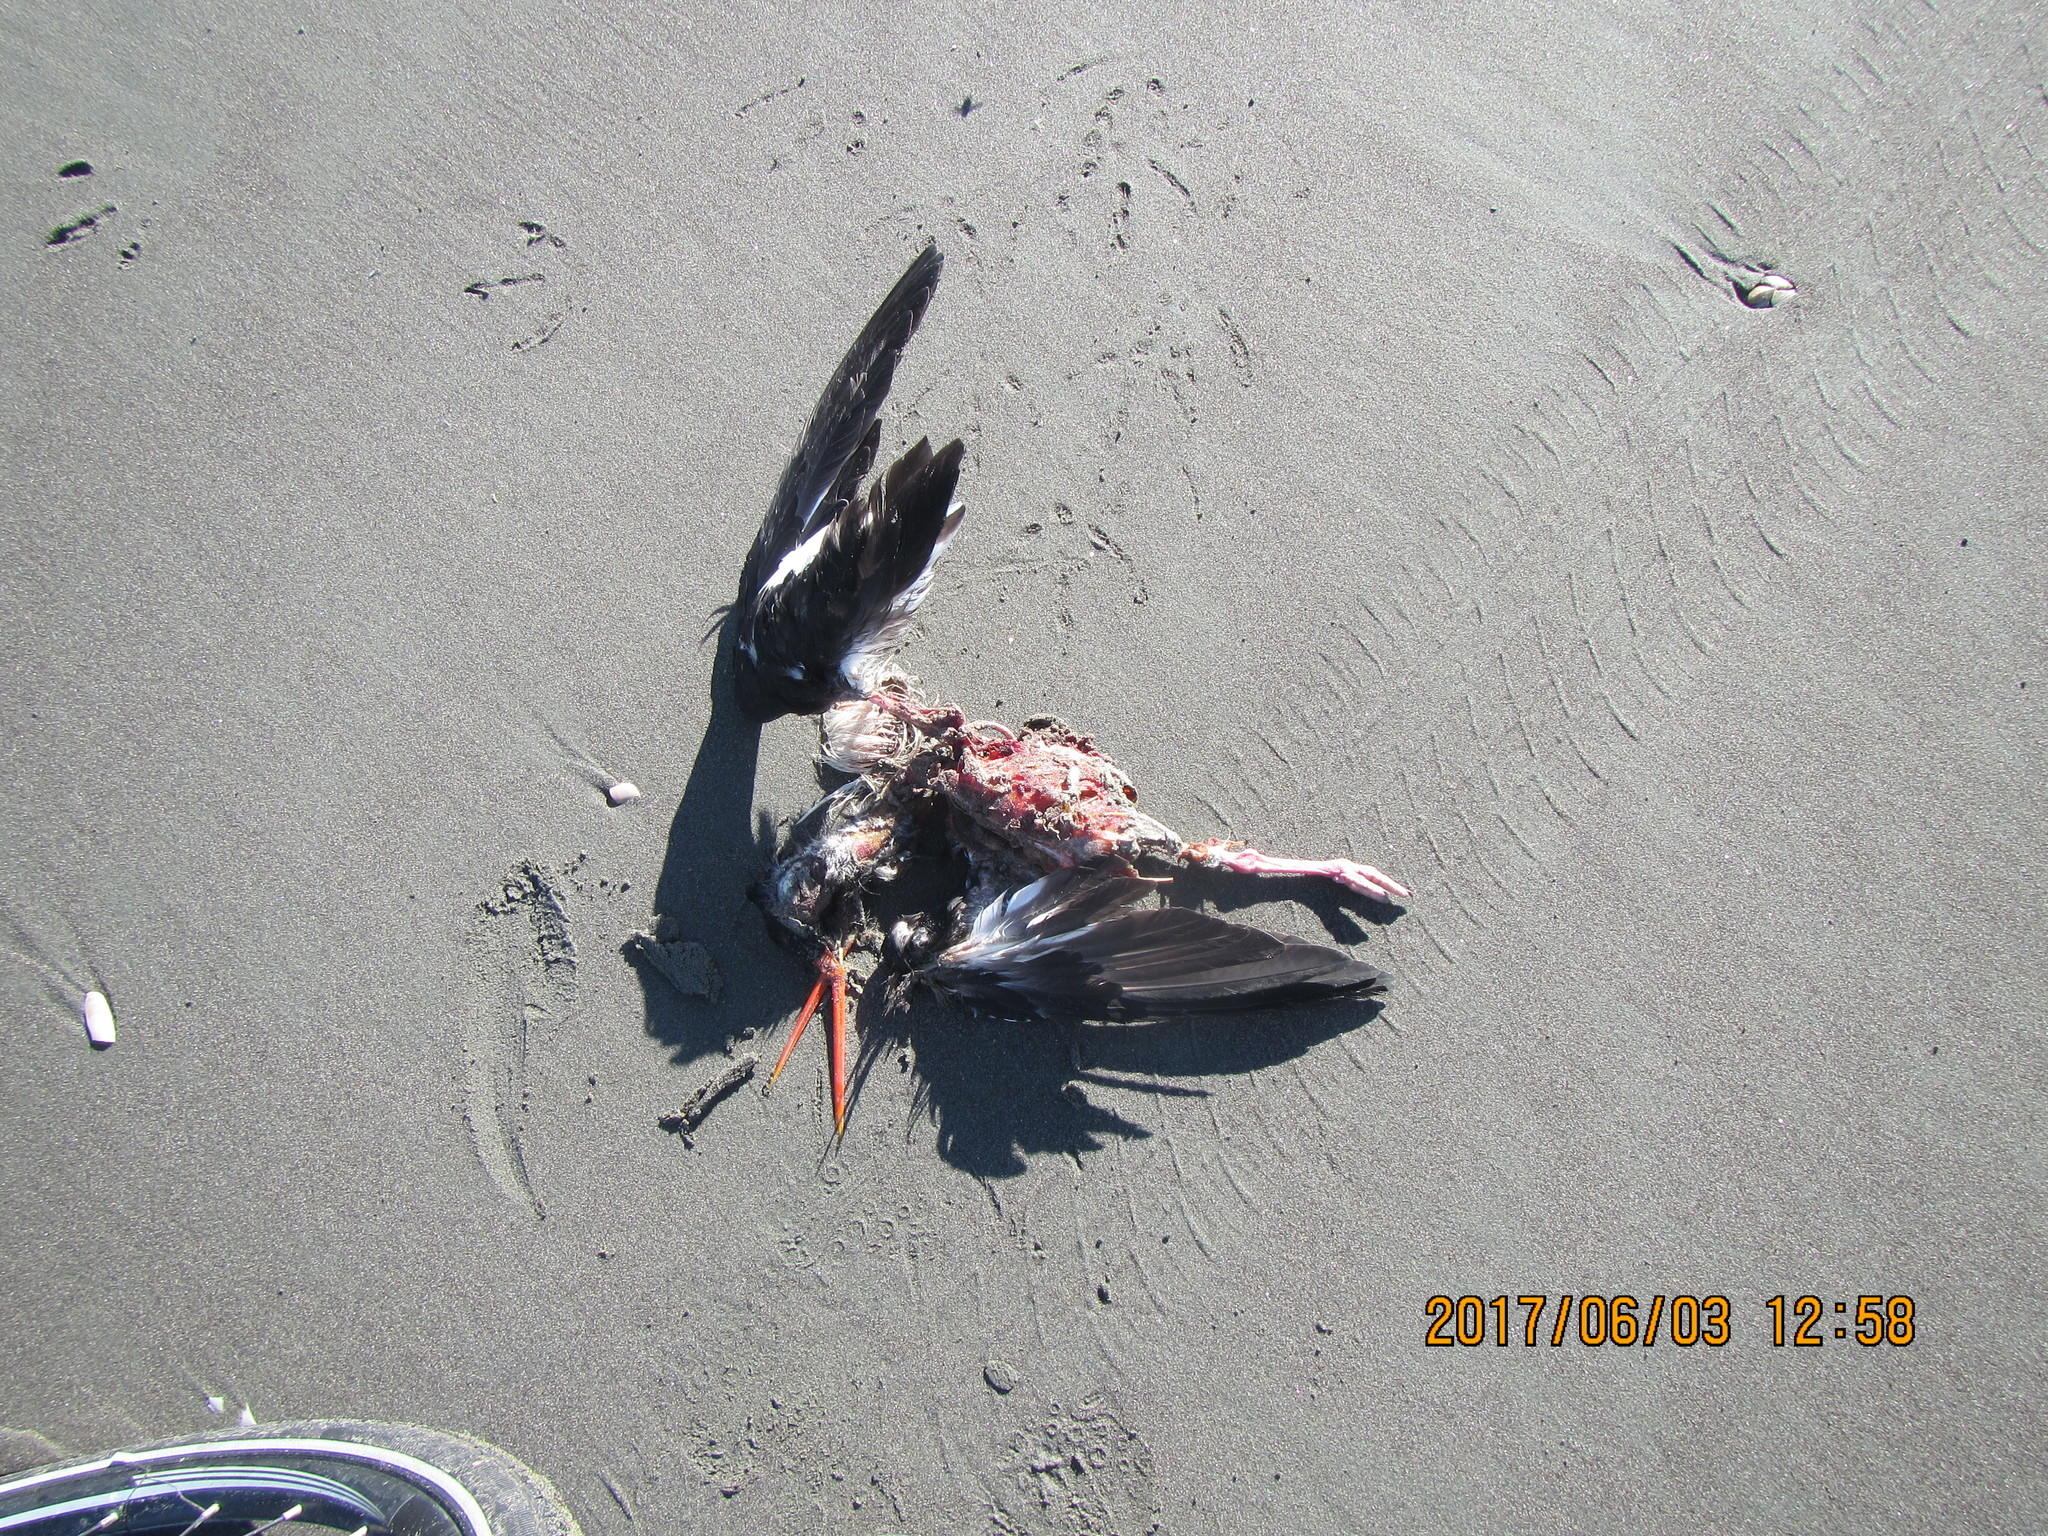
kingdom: Animalia
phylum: Chordata
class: Aves
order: Charadriiformes
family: Haematopodidae
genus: Haematopus
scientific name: Haematopus unicolor
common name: Variable oystercatcher
